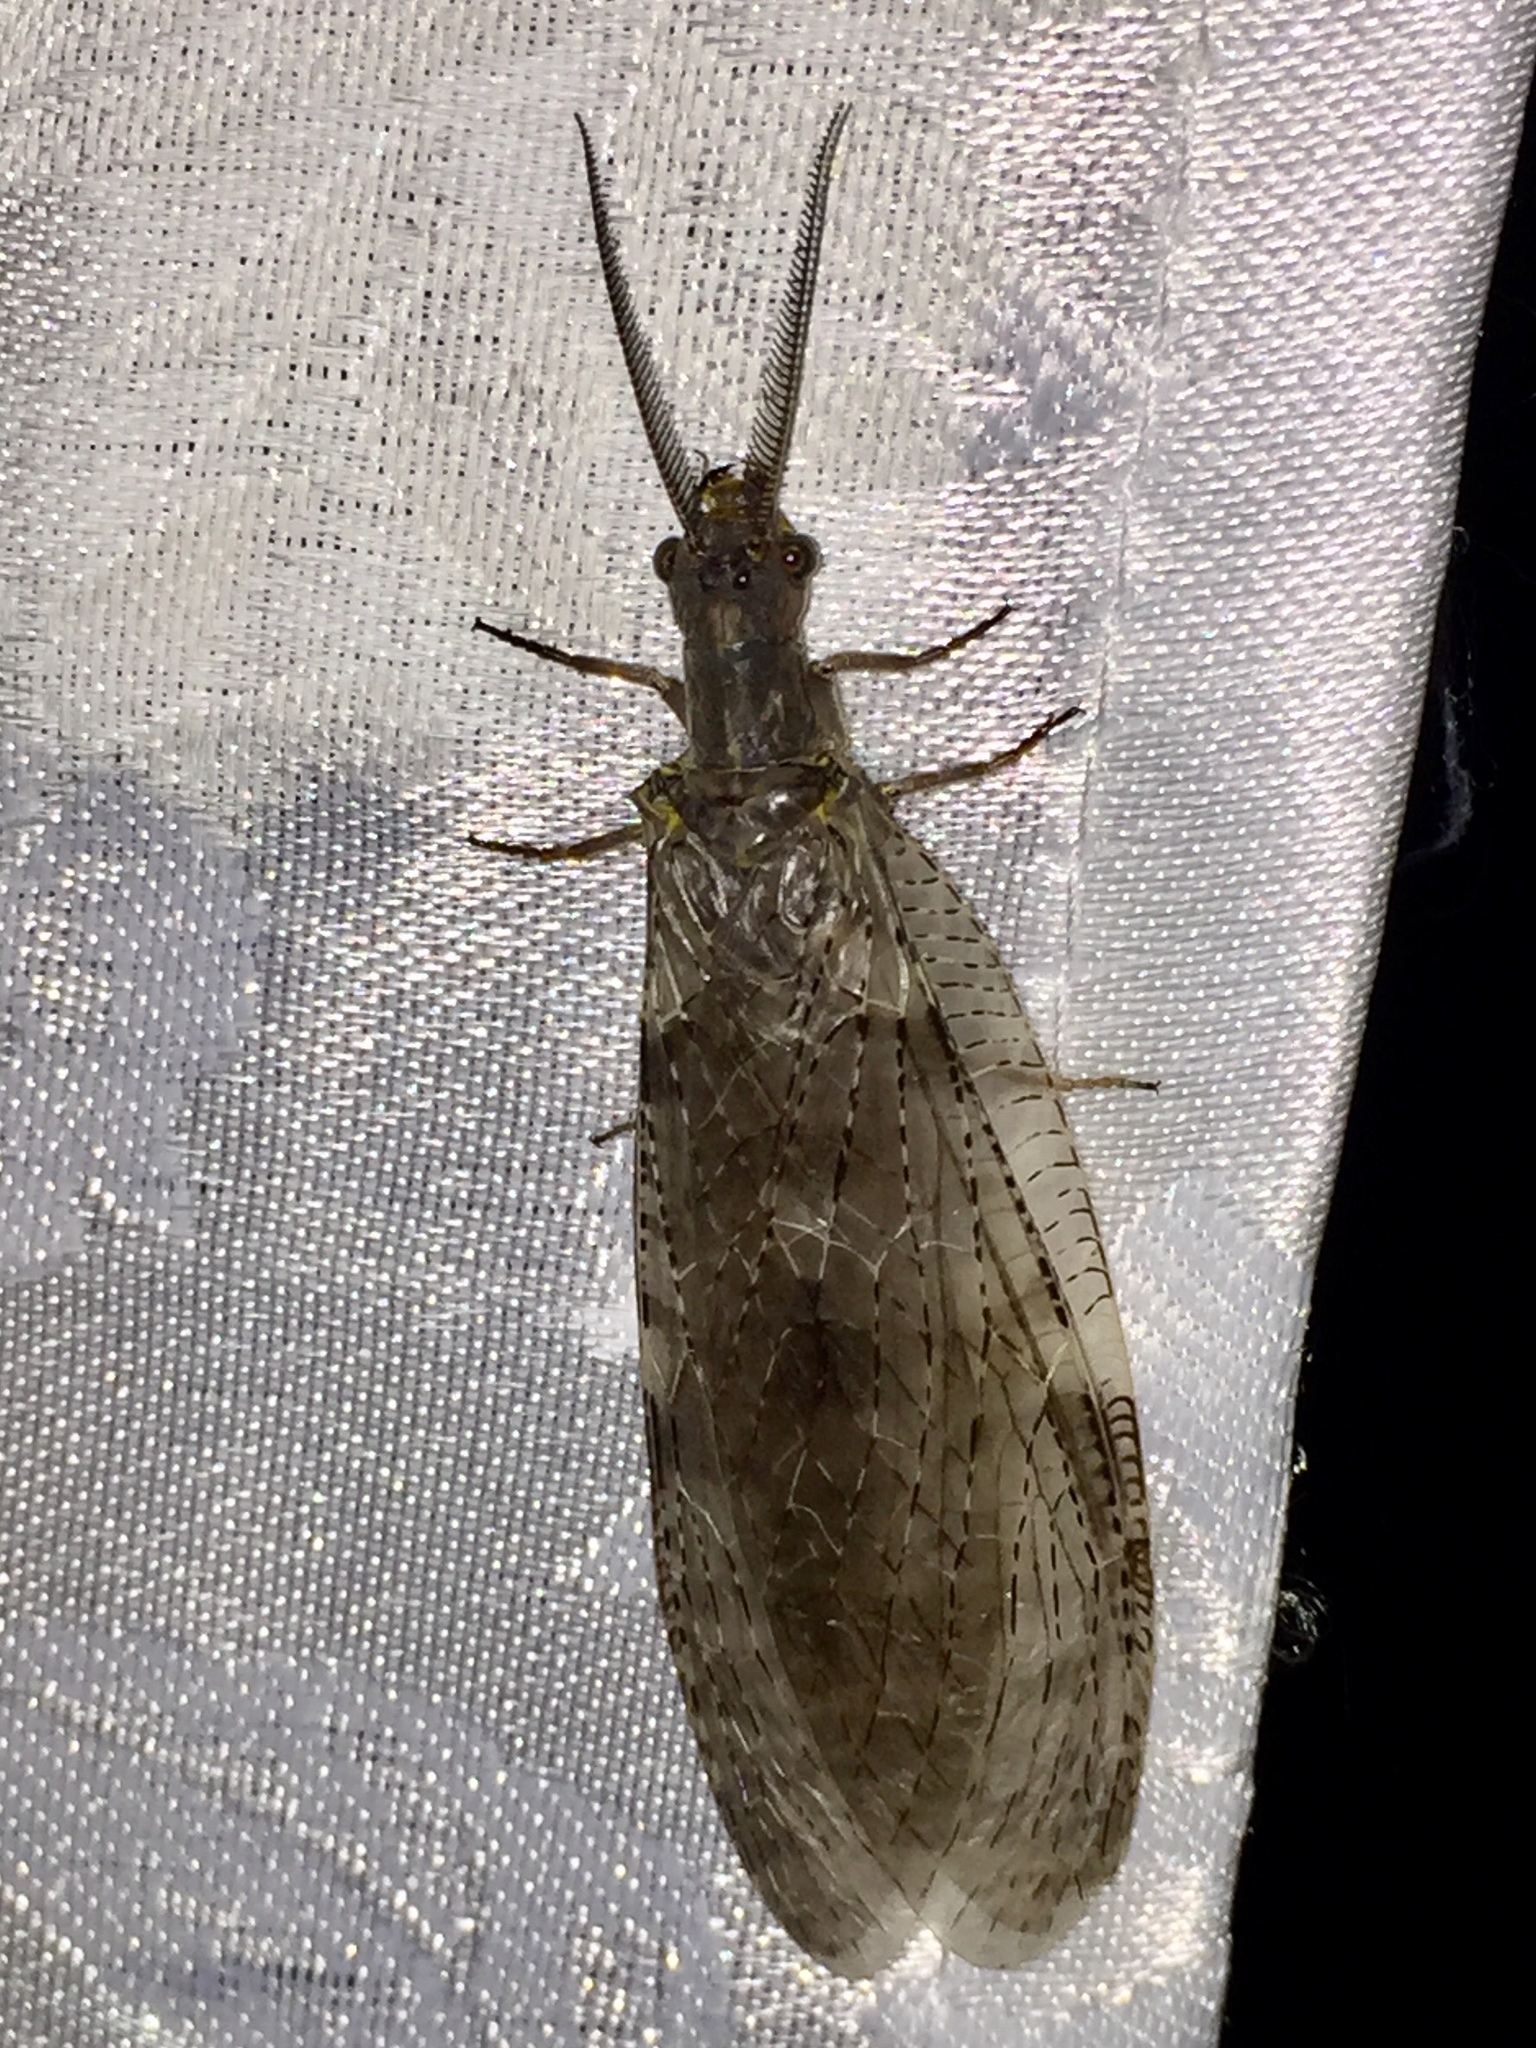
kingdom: Animalia
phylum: Arthropoda
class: Insecta
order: Megaloptera
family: Corydalidae
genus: Chauliodes
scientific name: Chauliodes pectinicornis
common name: Summer fishfly
